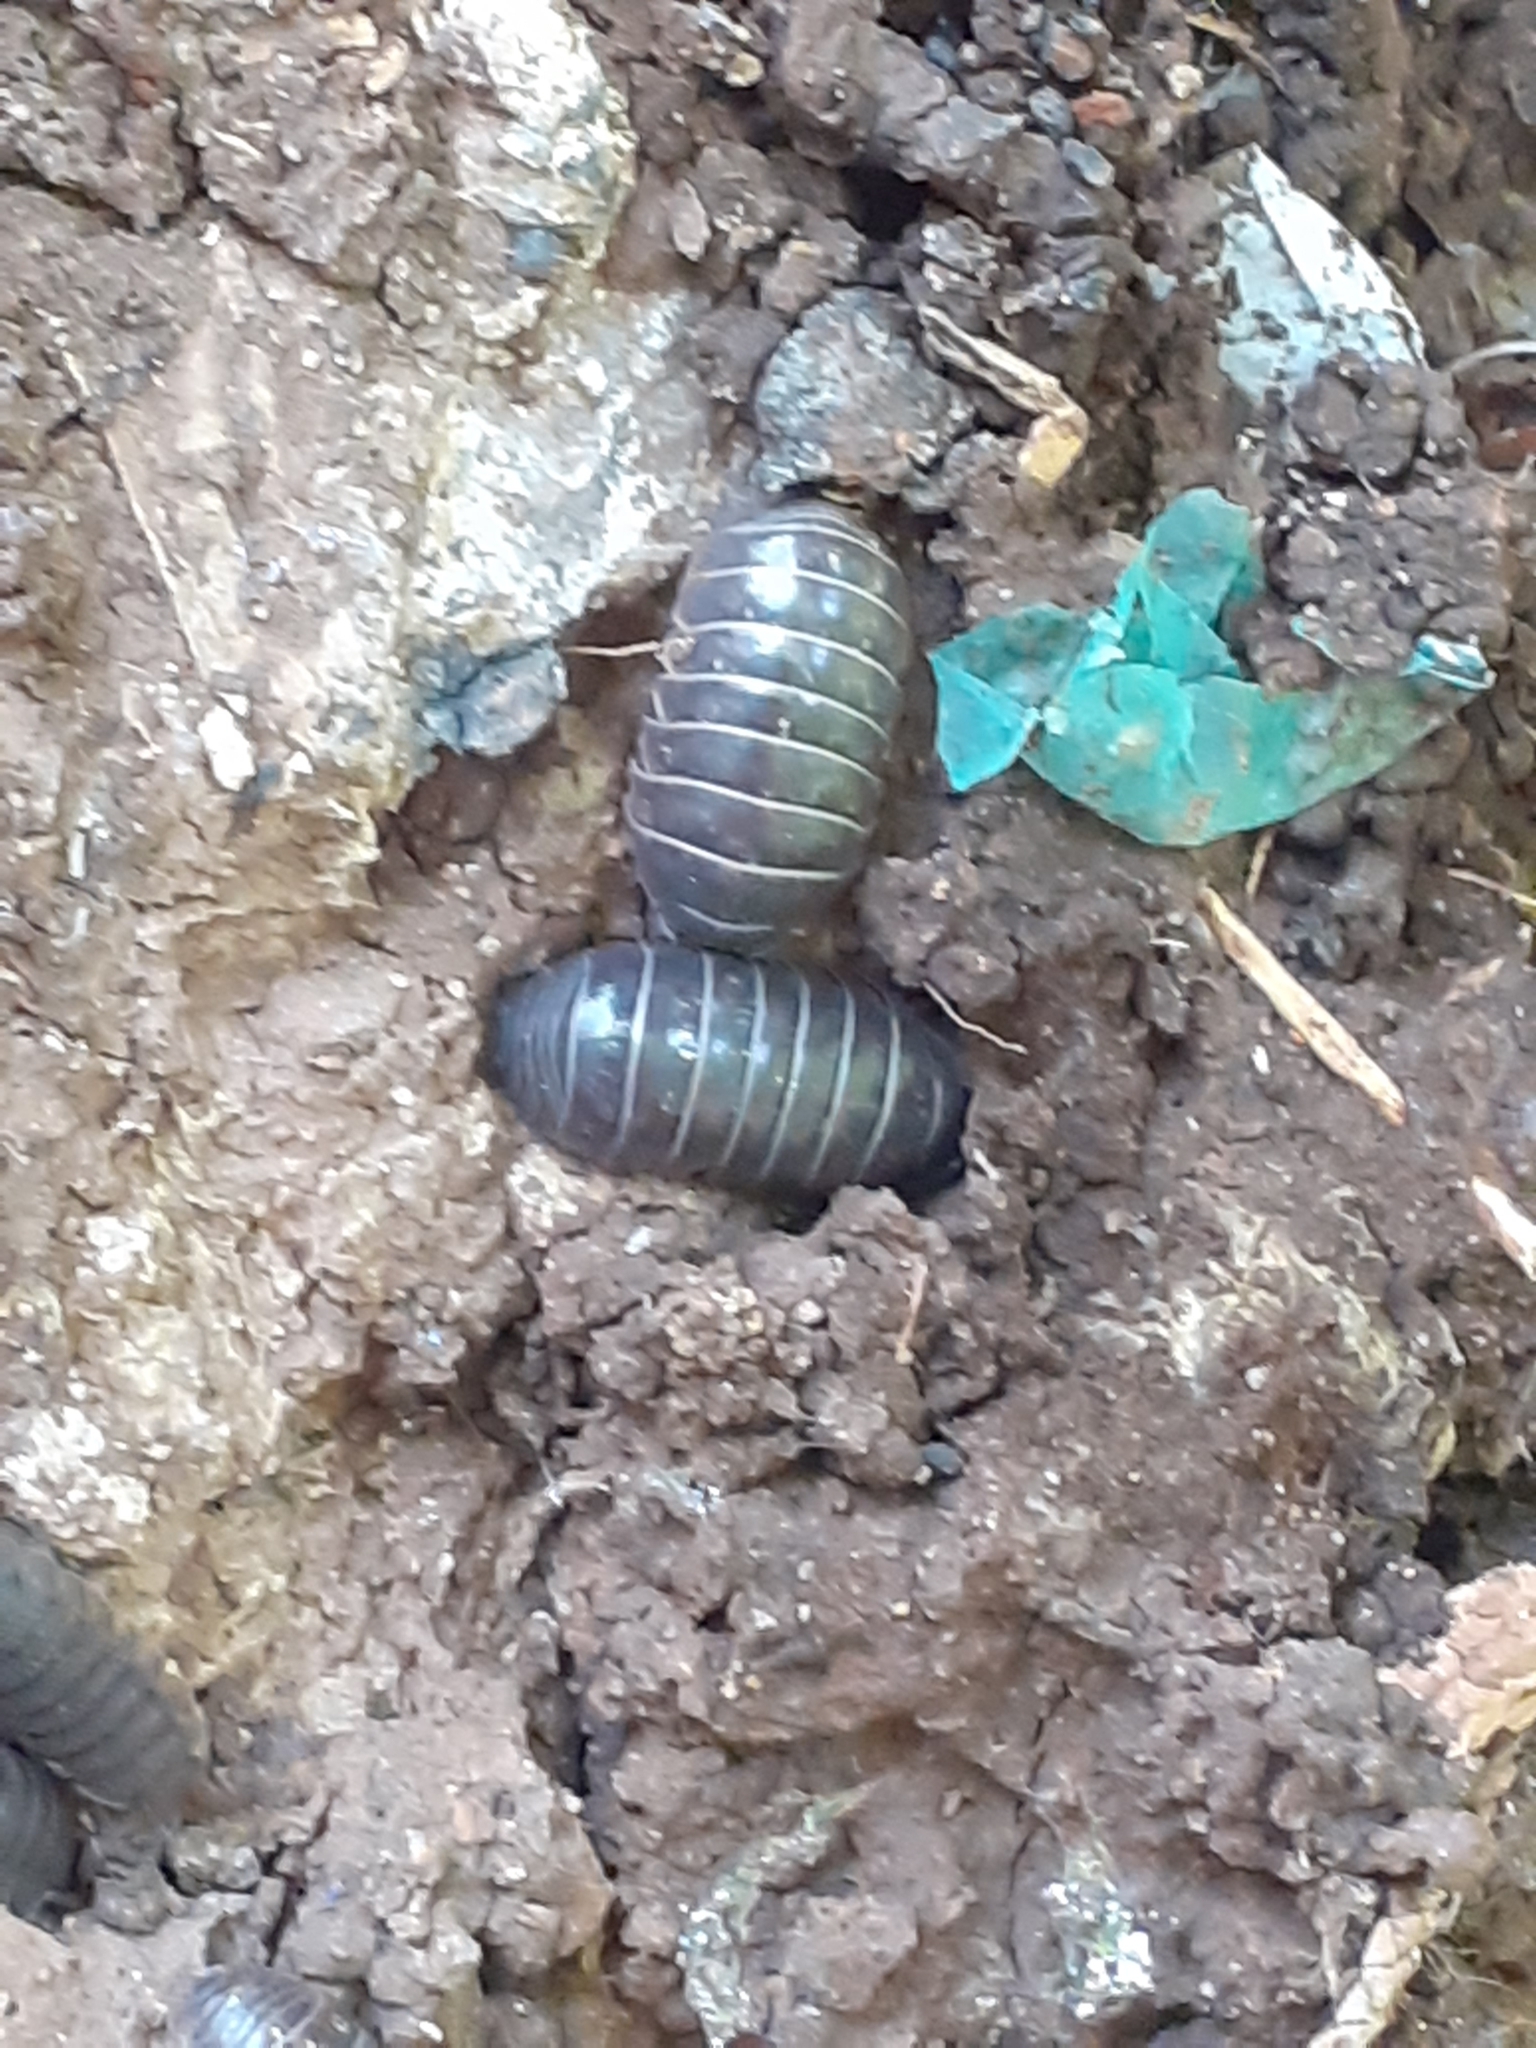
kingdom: Animalia
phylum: Arthropoda
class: Malacostraca
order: Isopoda
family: Armadillidiidae
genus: Armadillidium
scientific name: Armadillidium vulgare
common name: Common pill woodlouse
